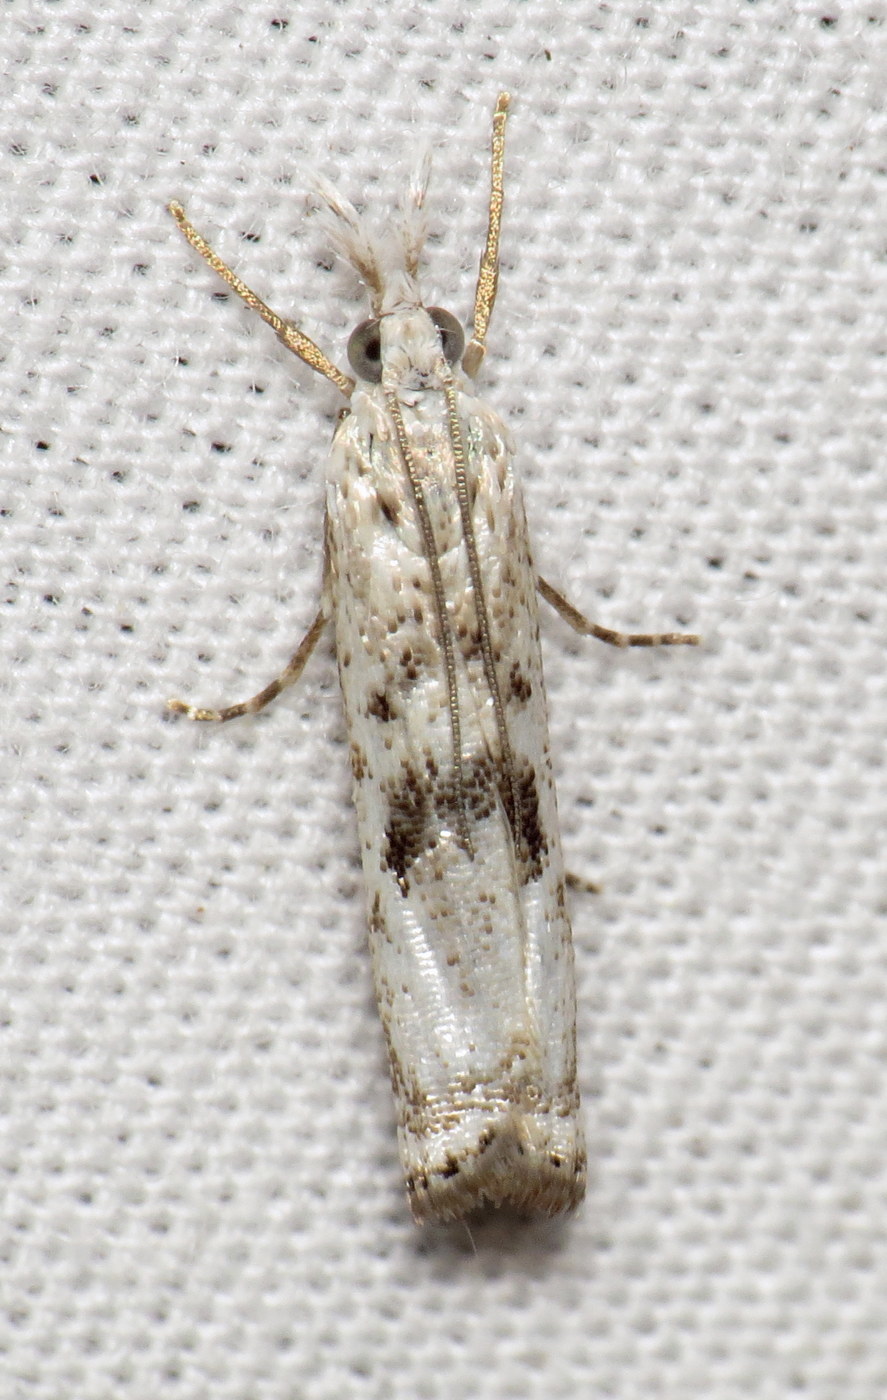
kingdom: Animalia
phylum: Arthropoda
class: Insecta
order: Lepidoptera
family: Crambidae
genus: Microcrambus
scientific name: Microcrambus immunellus
